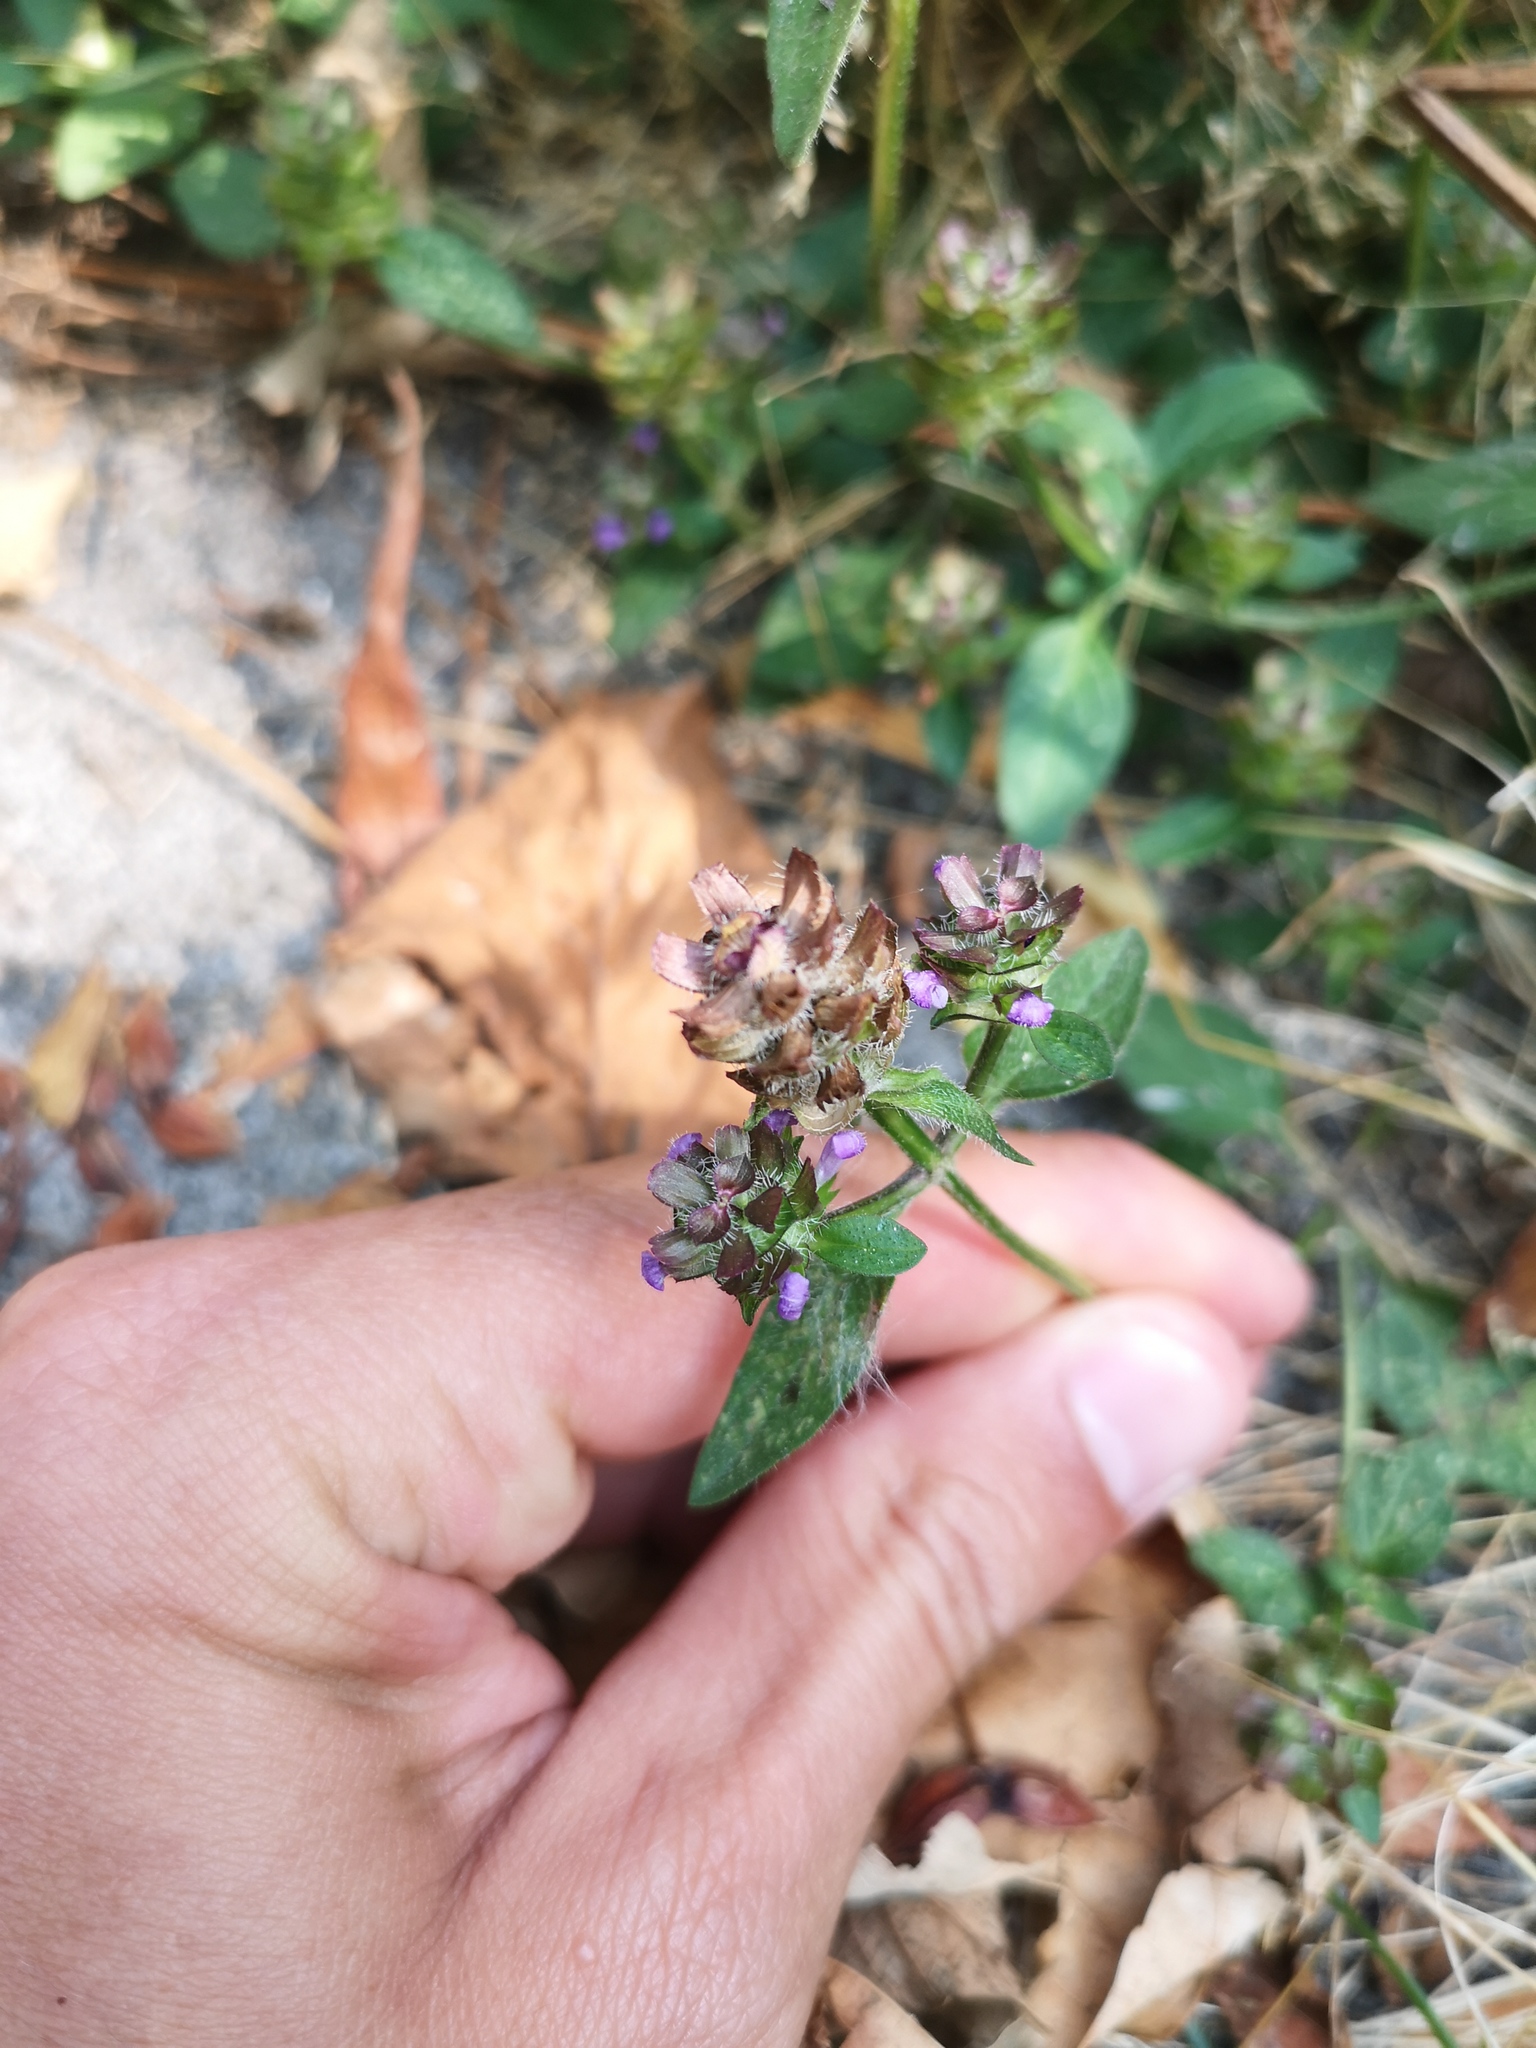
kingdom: Plantae
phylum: Tracheophyta
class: Magnoliopsida
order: Lamiales
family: Lamiaceae
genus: Prunella
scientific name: Prunella vulgaris
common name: Heal-all
